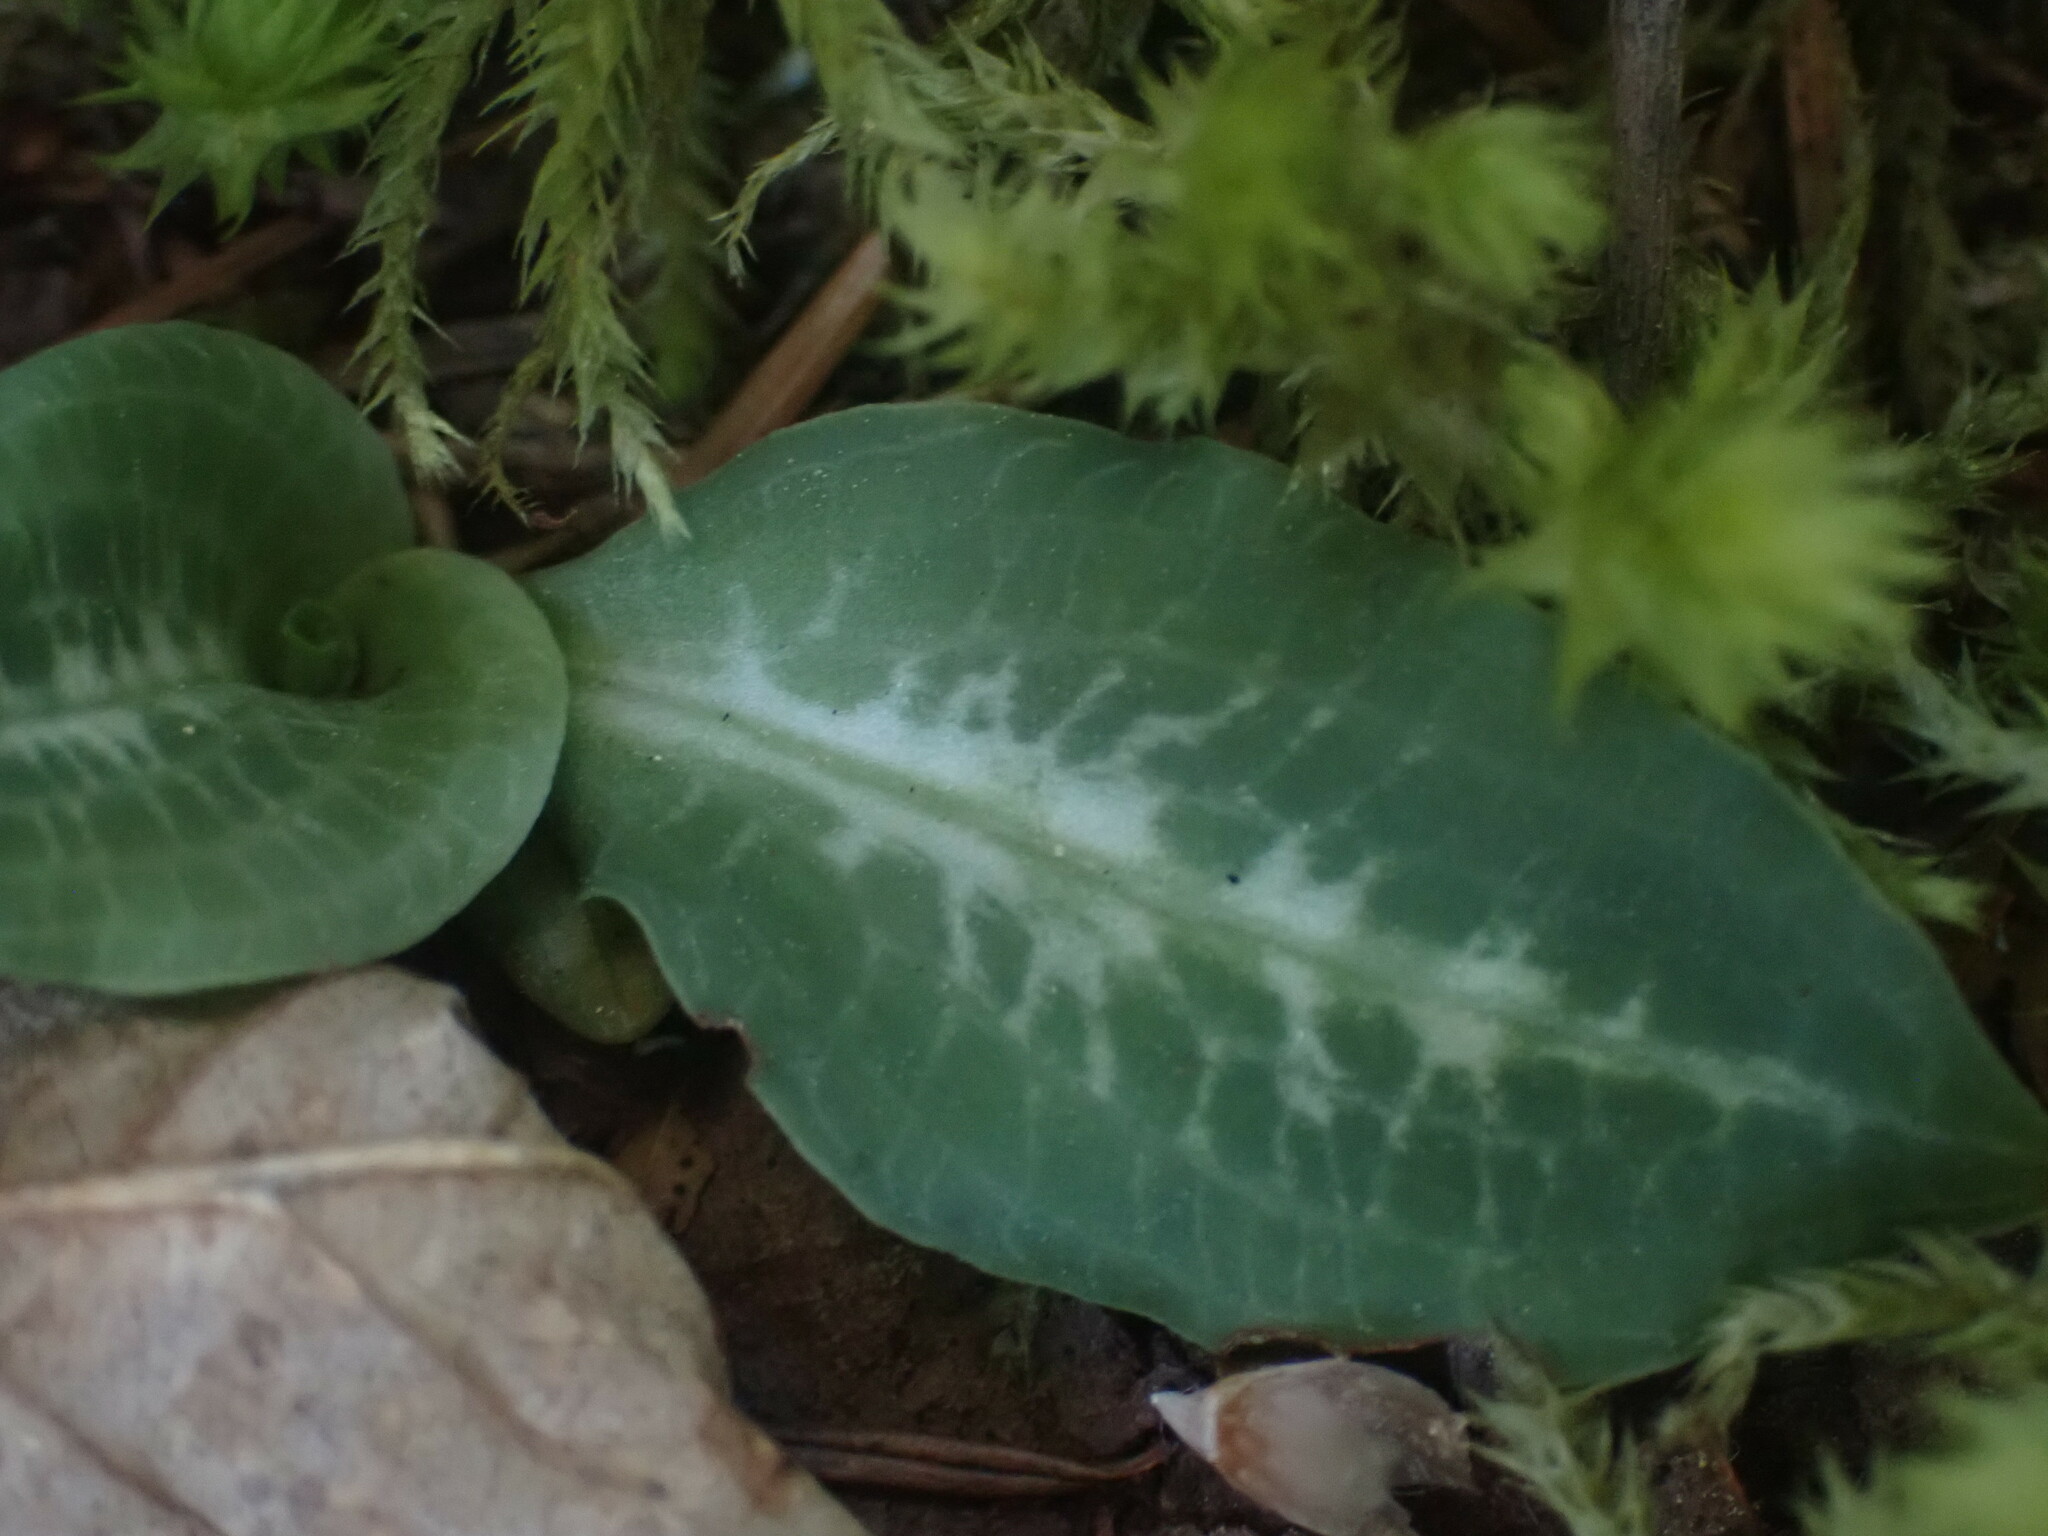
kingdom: Plantae
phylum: Tracheophyta
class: Liliopsida
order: Asparagales
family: Orchidaceae
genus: Goodyera
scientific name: Goodyera oblongifolia
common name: Giant rattlesnake-plantain
